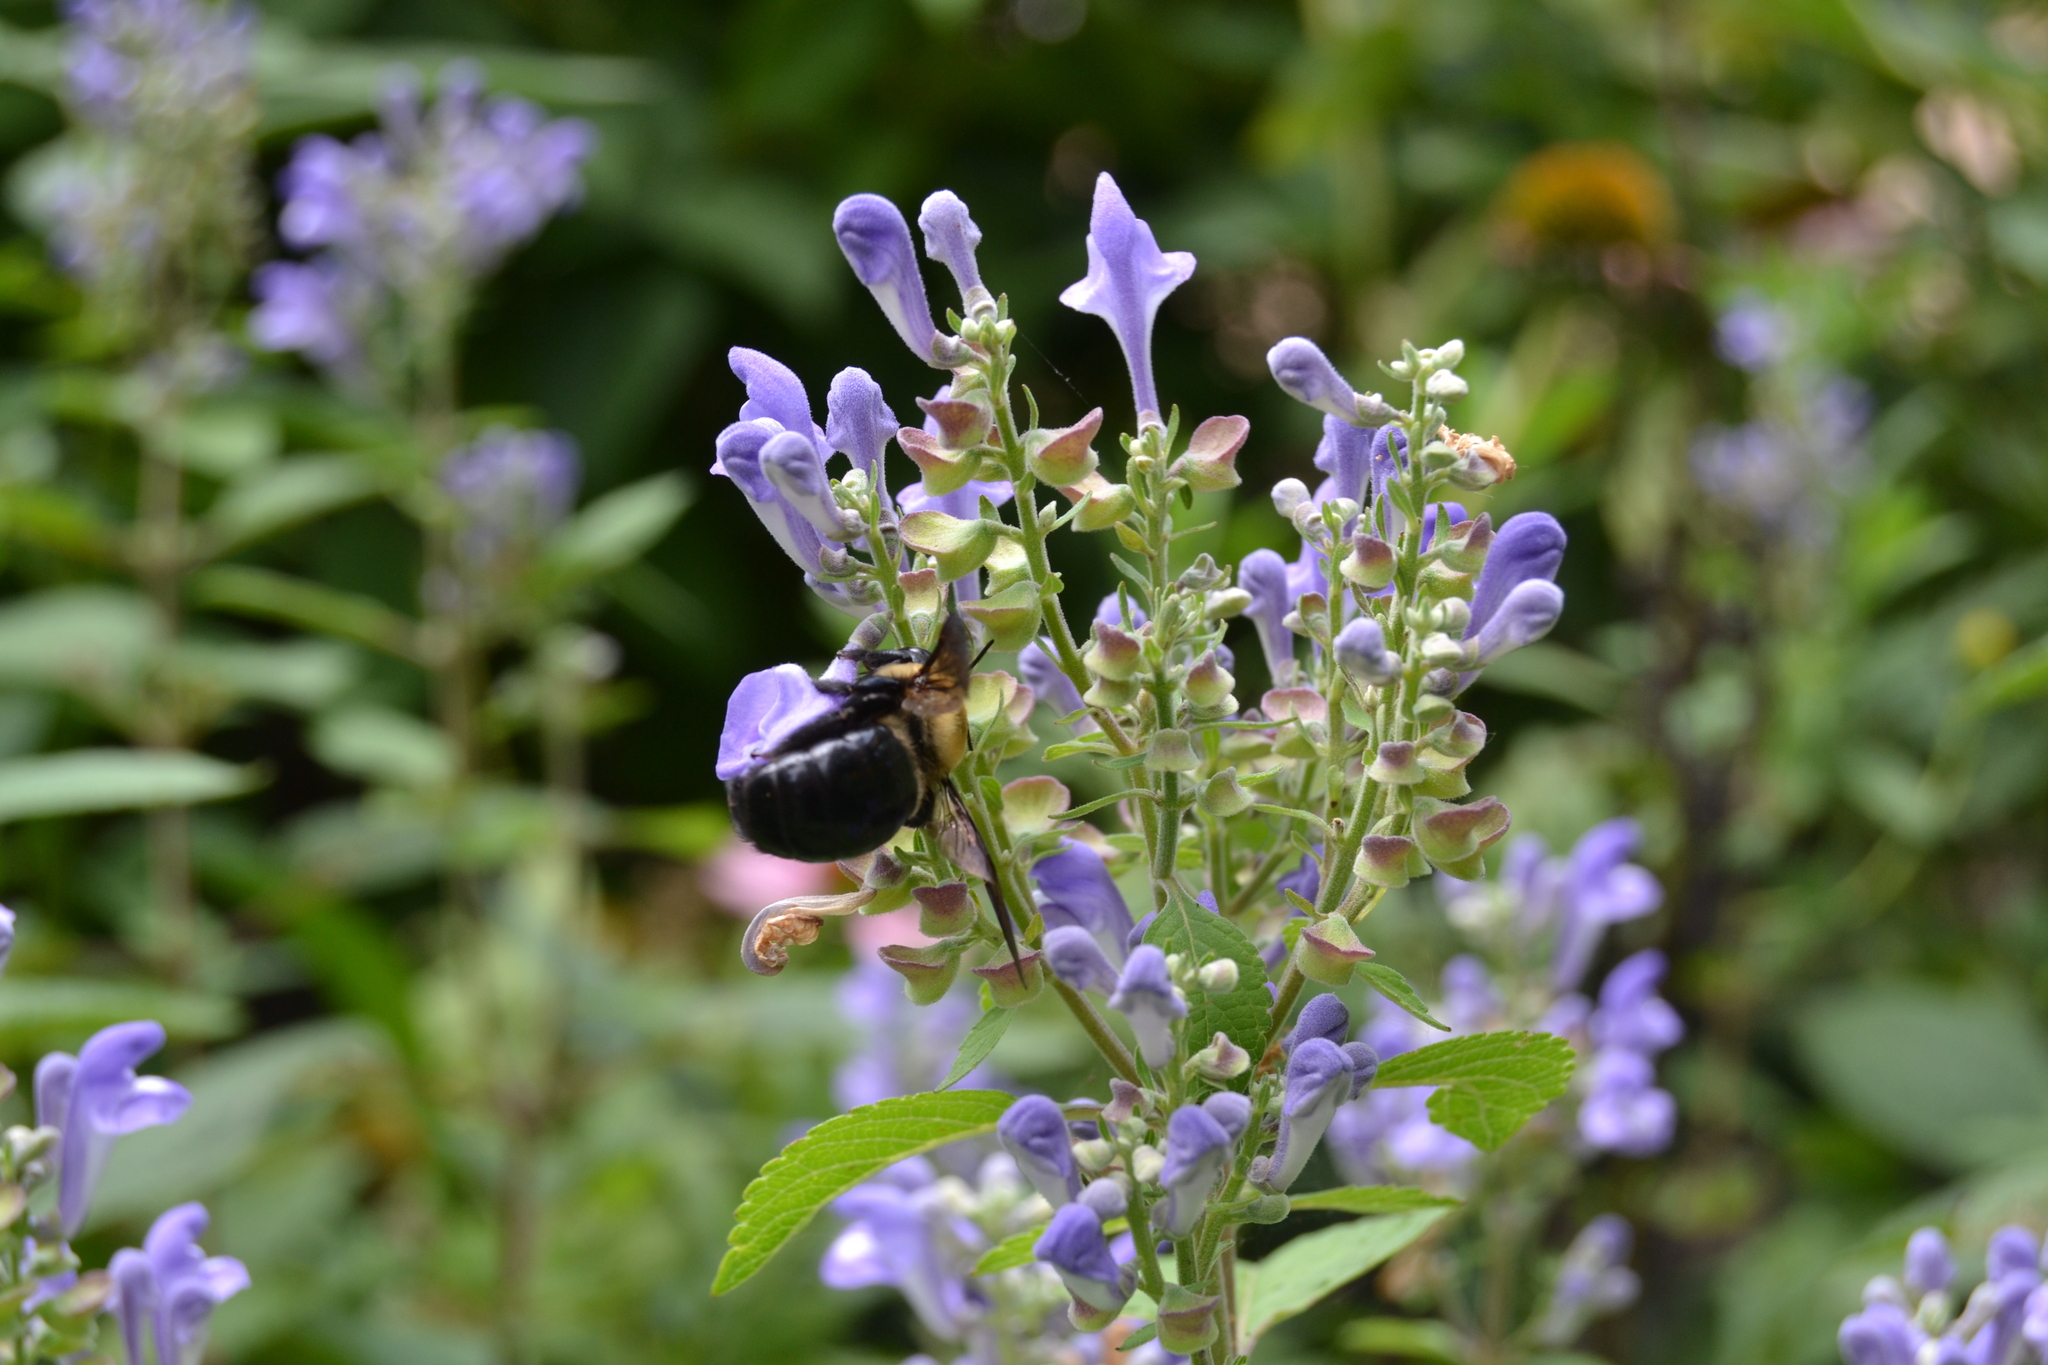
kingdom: Animalia
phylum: Arthropoda
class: Insecta
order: Hymenoptera
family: Apidae
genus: Xylocopa
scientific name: Xylocopa virginica
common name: Carpenter bee
